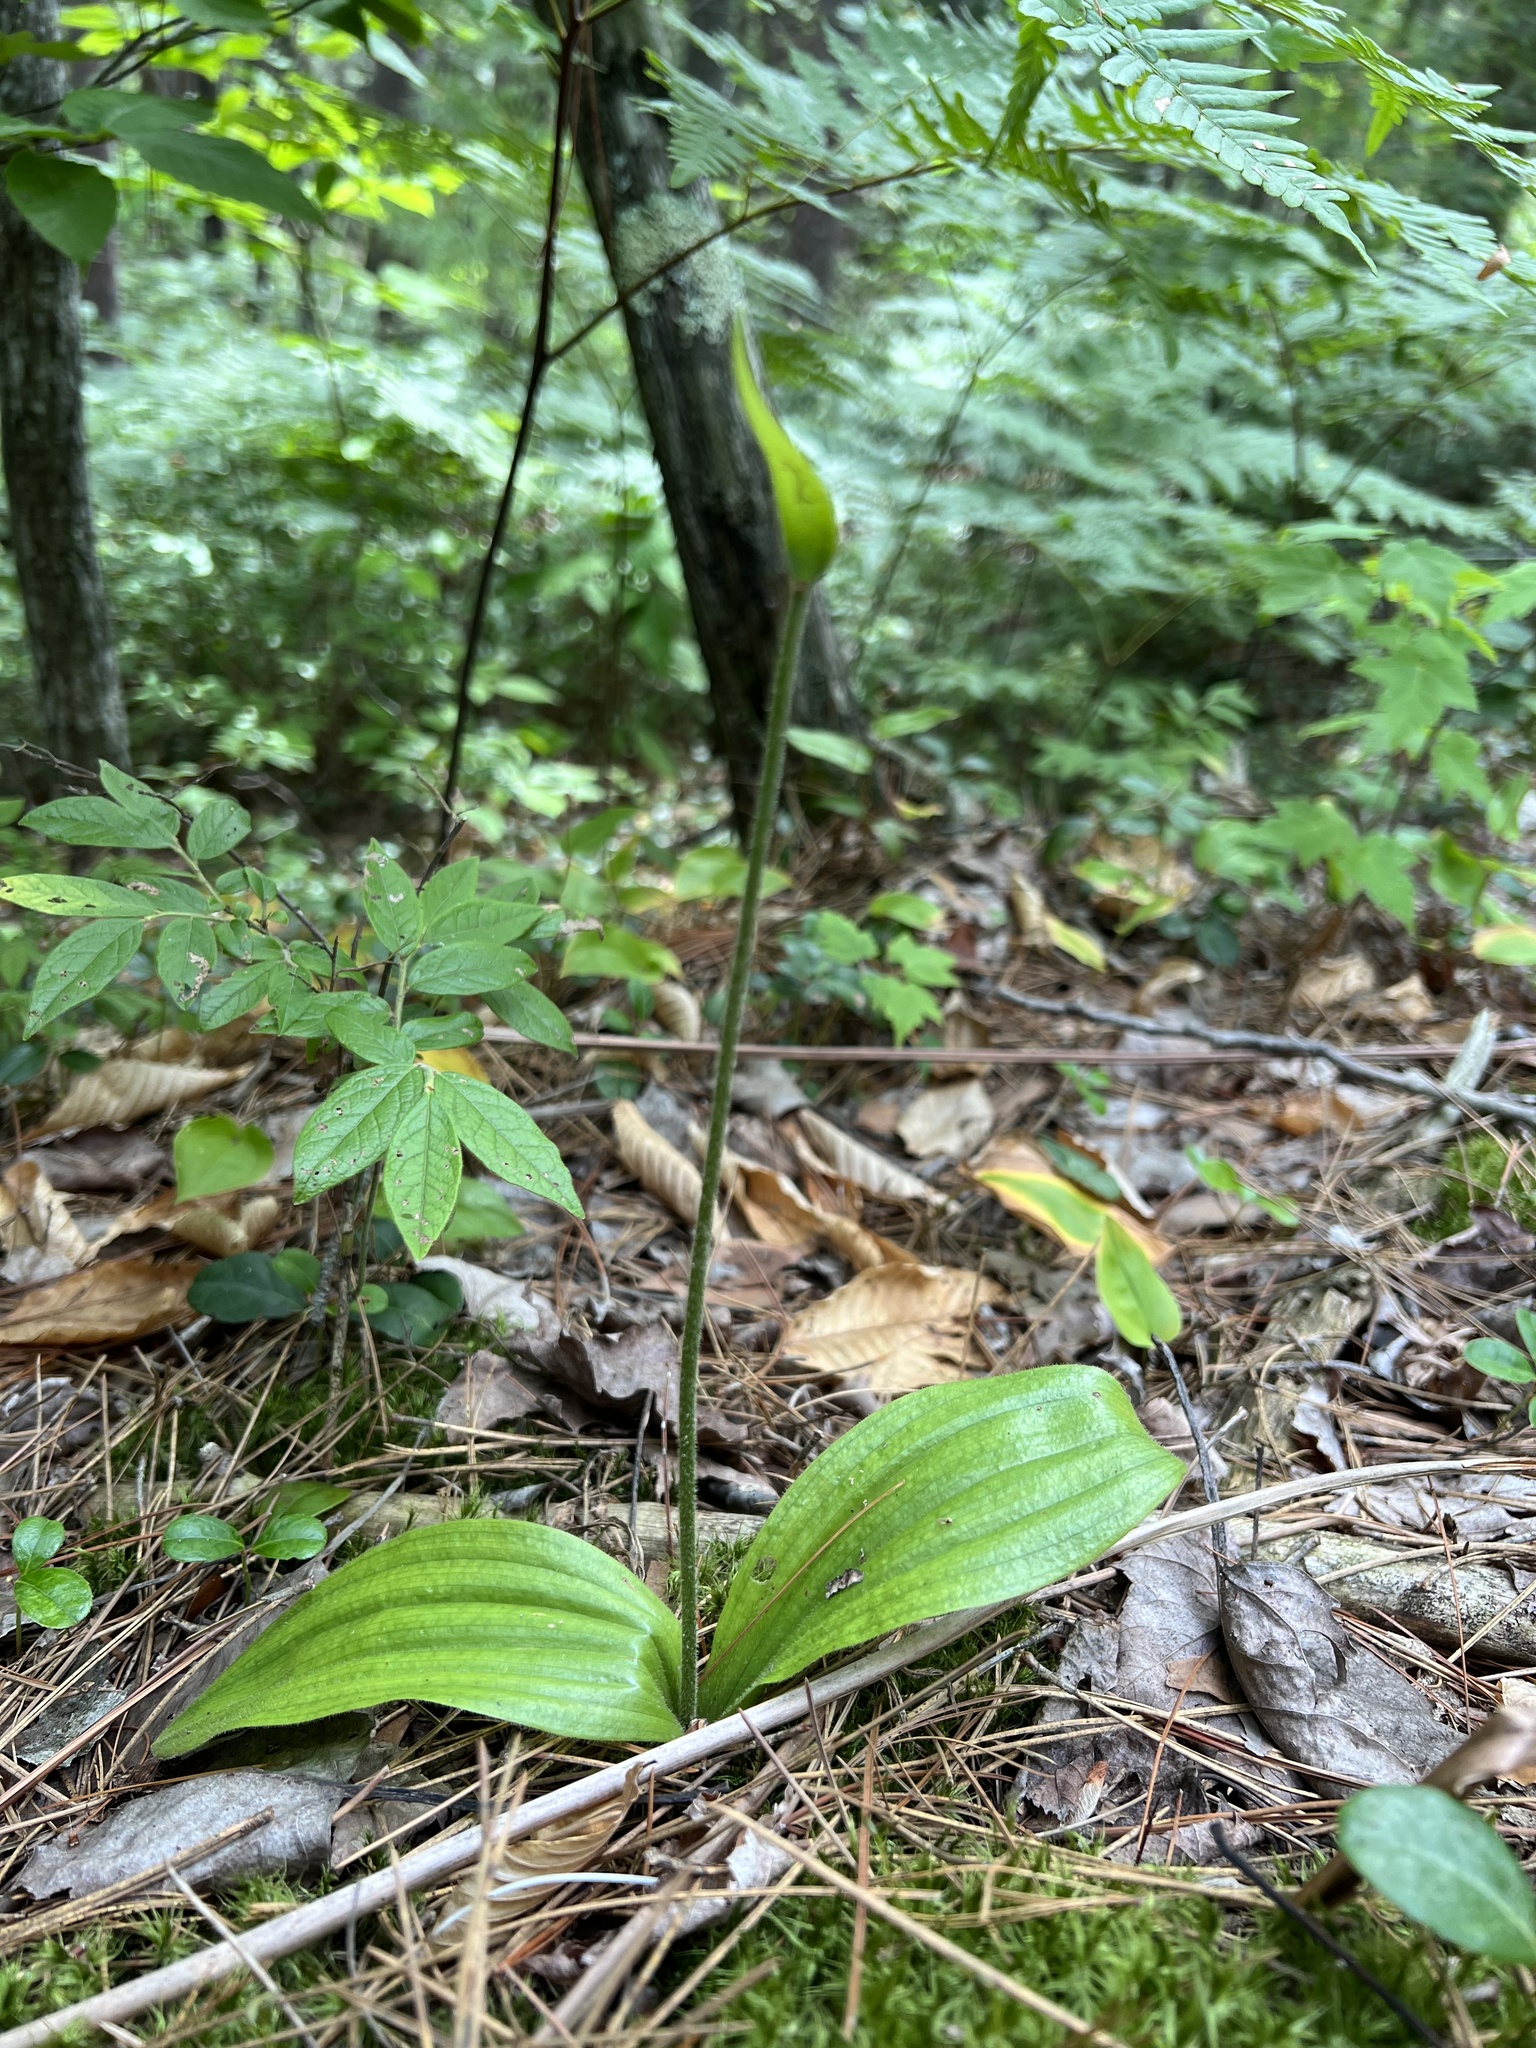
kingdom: Plantae
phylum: Tracheophyta
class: Liliopsida
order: Asparagales
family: Orchidaceae
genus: Cypripedium
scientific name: Cypripedium acaule
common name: Pink lady's-slipper
